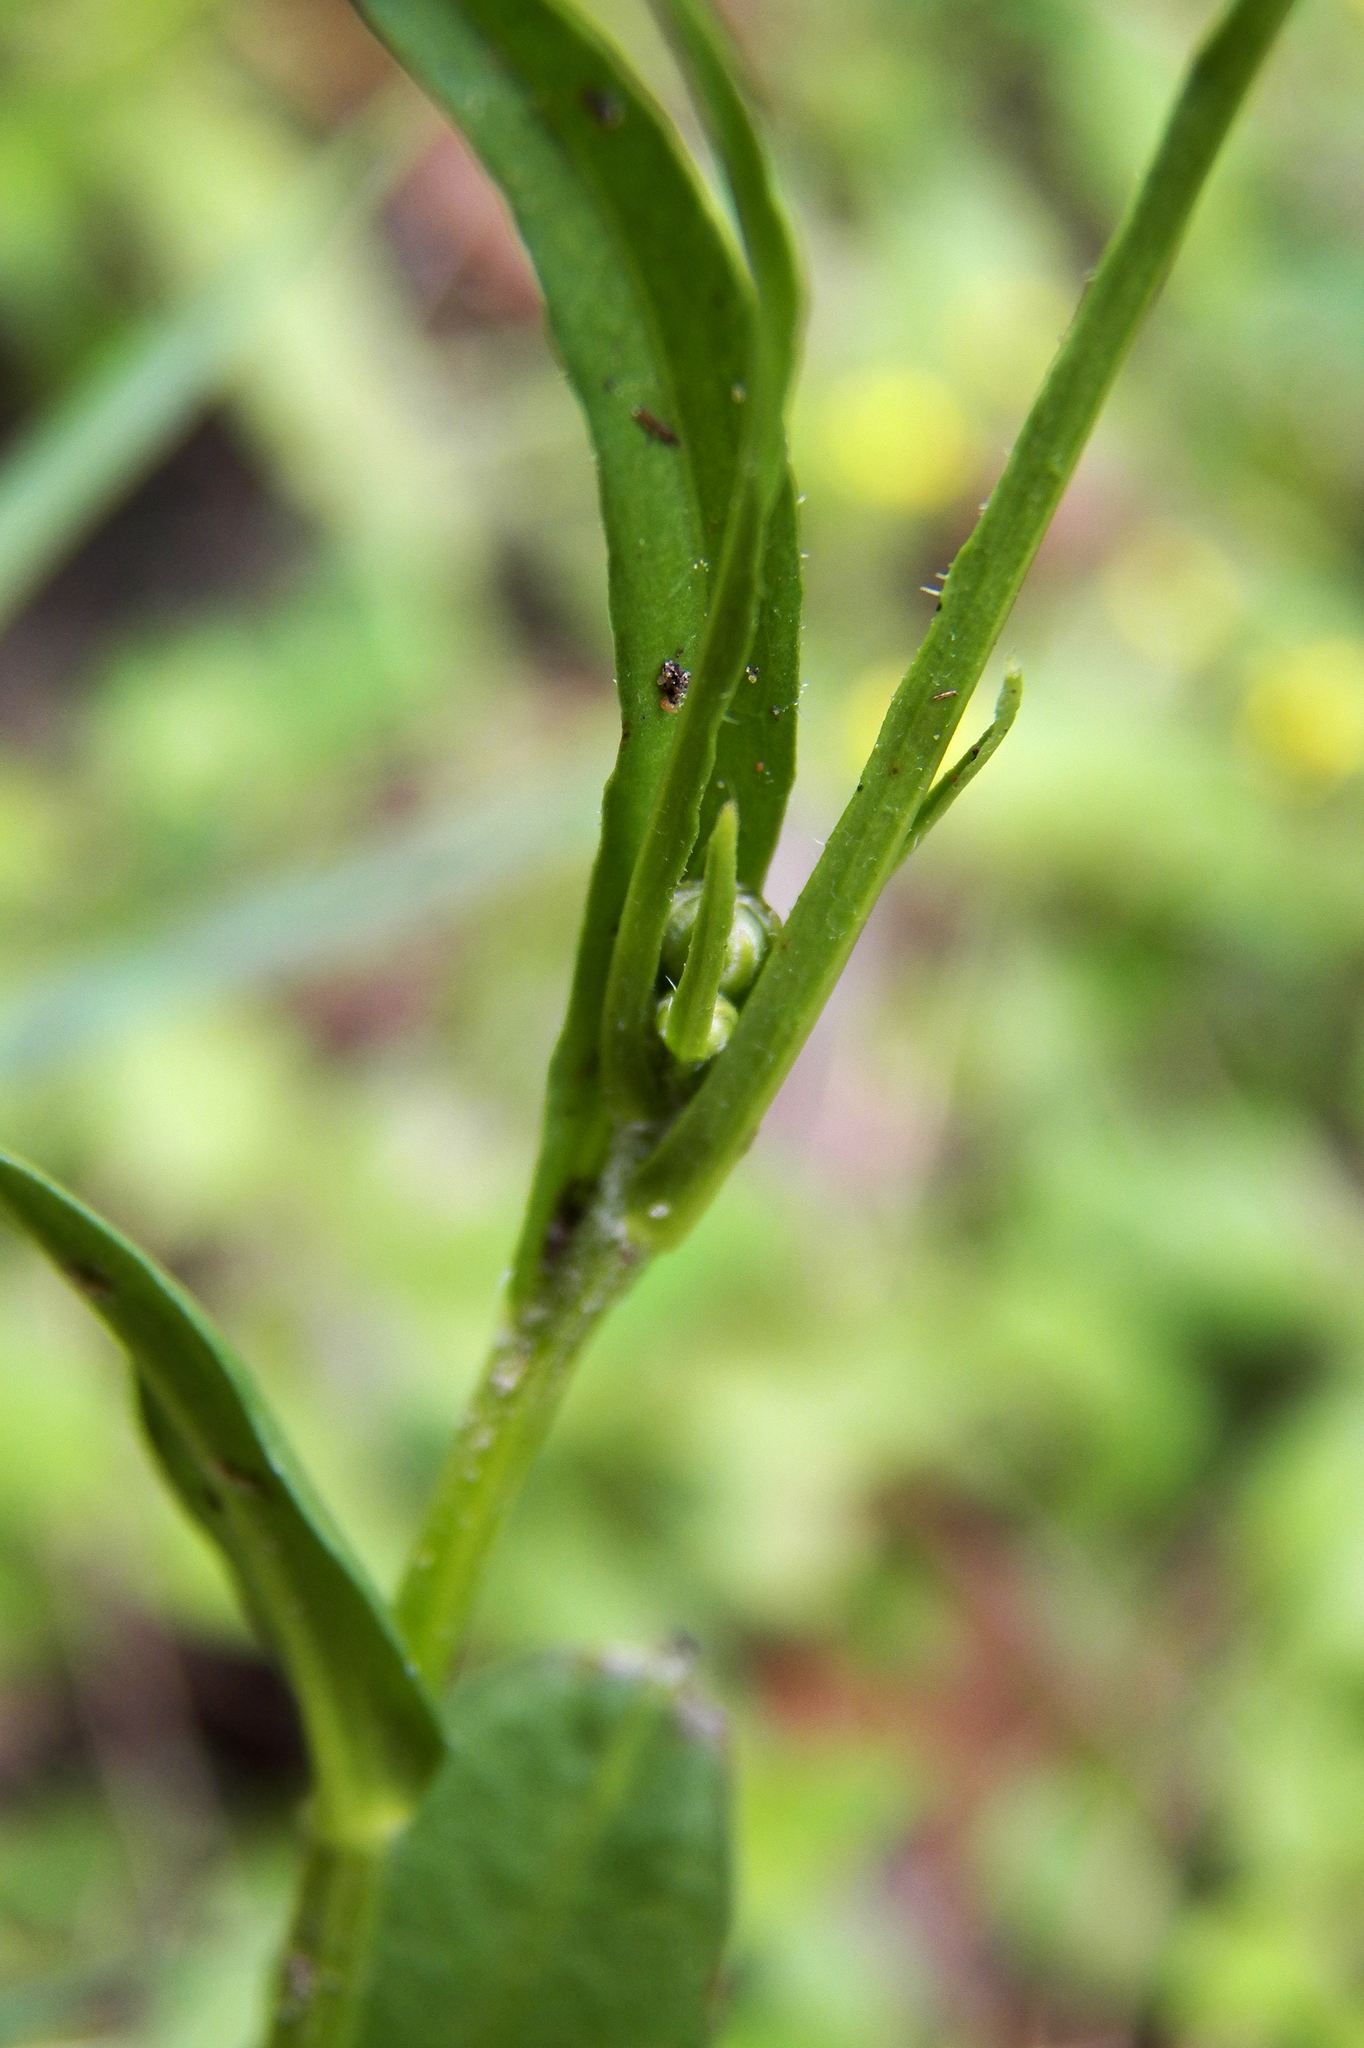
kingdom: Plantae
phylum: Tracheophyta
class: Magnoliopsida
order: Asterales
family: Asteraceae
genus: Hypochaeris
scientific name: Hypochaeris albiflora
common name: White flatweed
